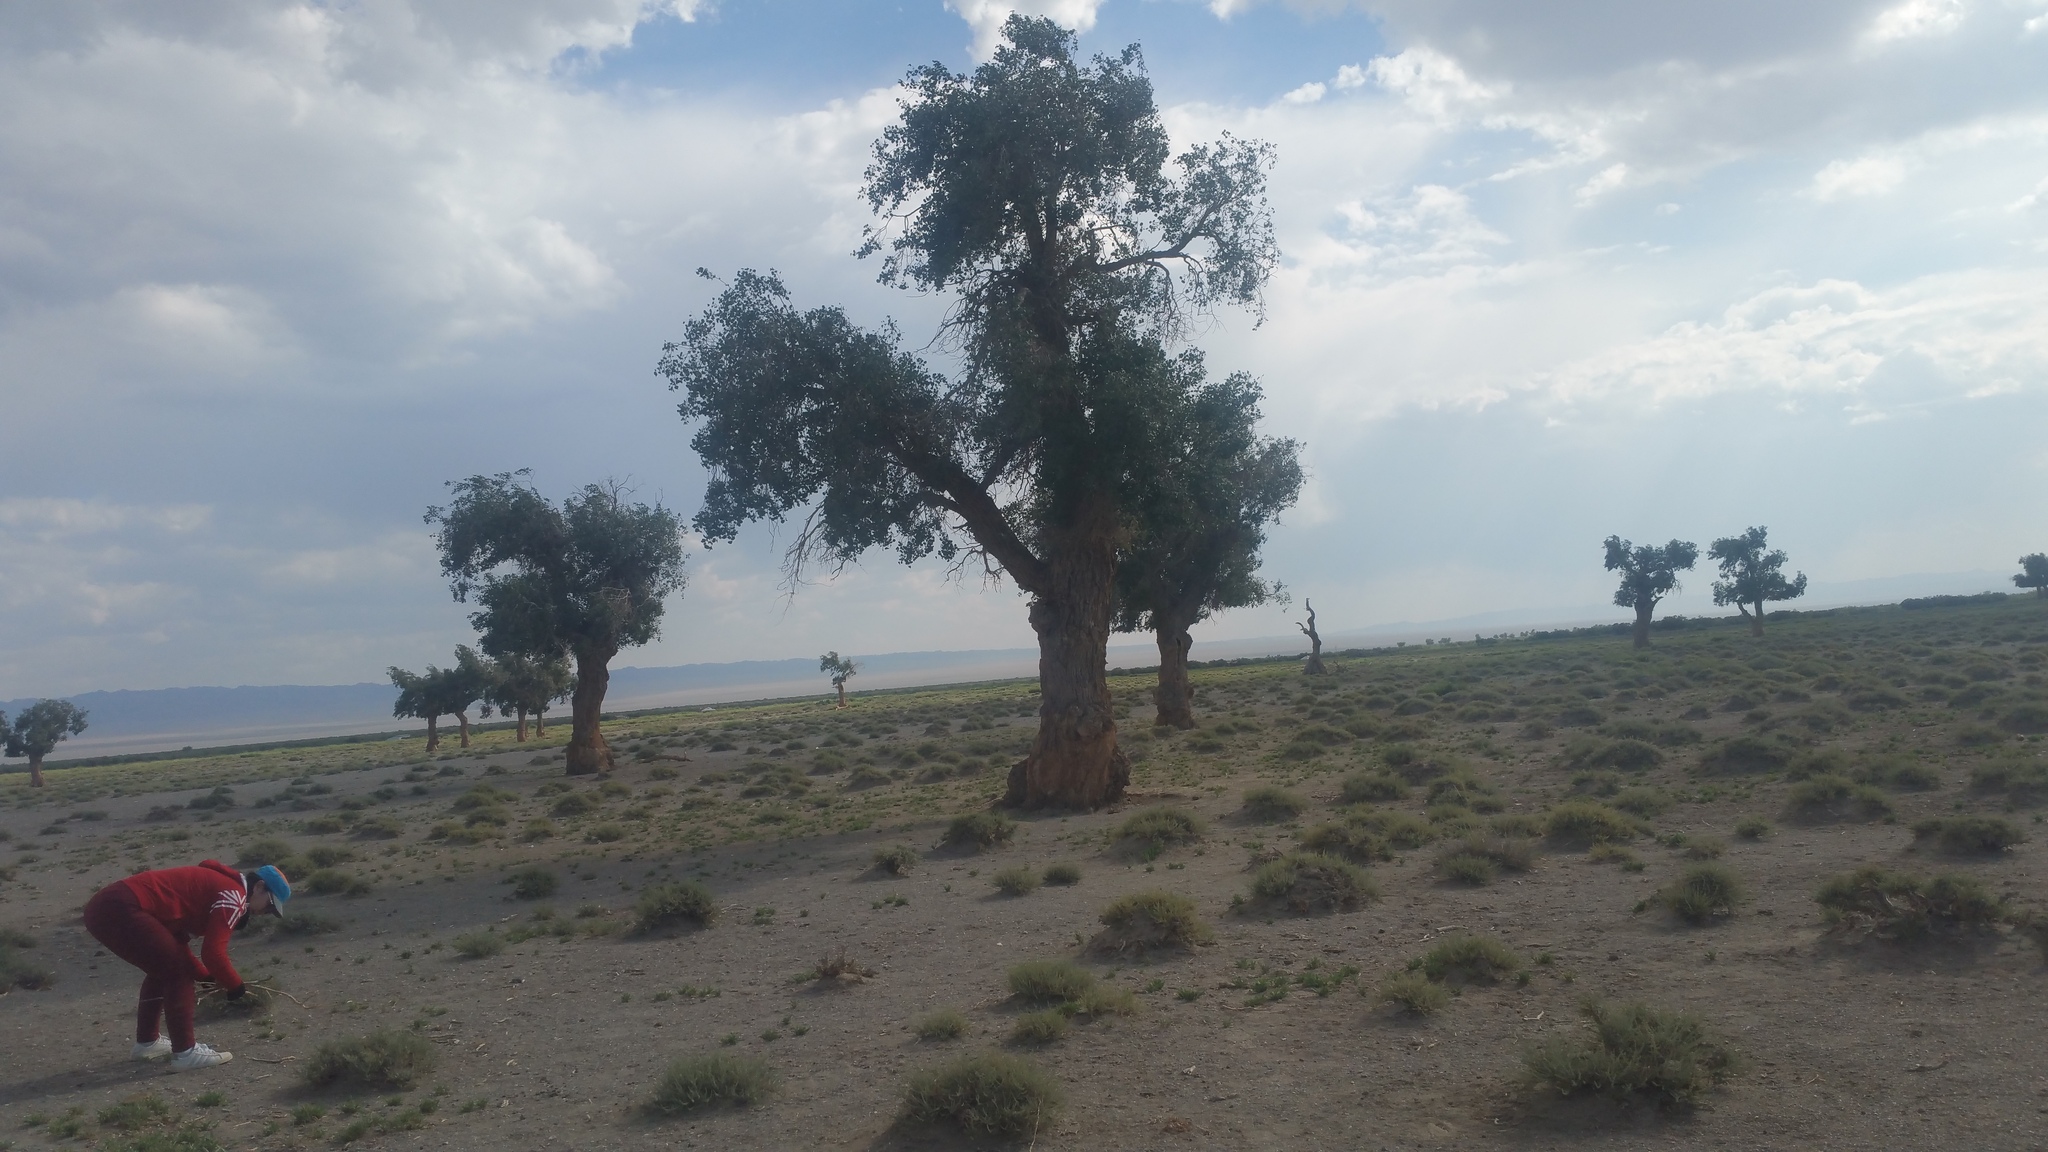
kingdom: Plantae
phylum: Tracheophyta
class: Magnoliopsida
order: Malpighiales
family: Salicaceae
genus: Populus
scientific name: Populus euphratica
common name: Euphrates poplar
